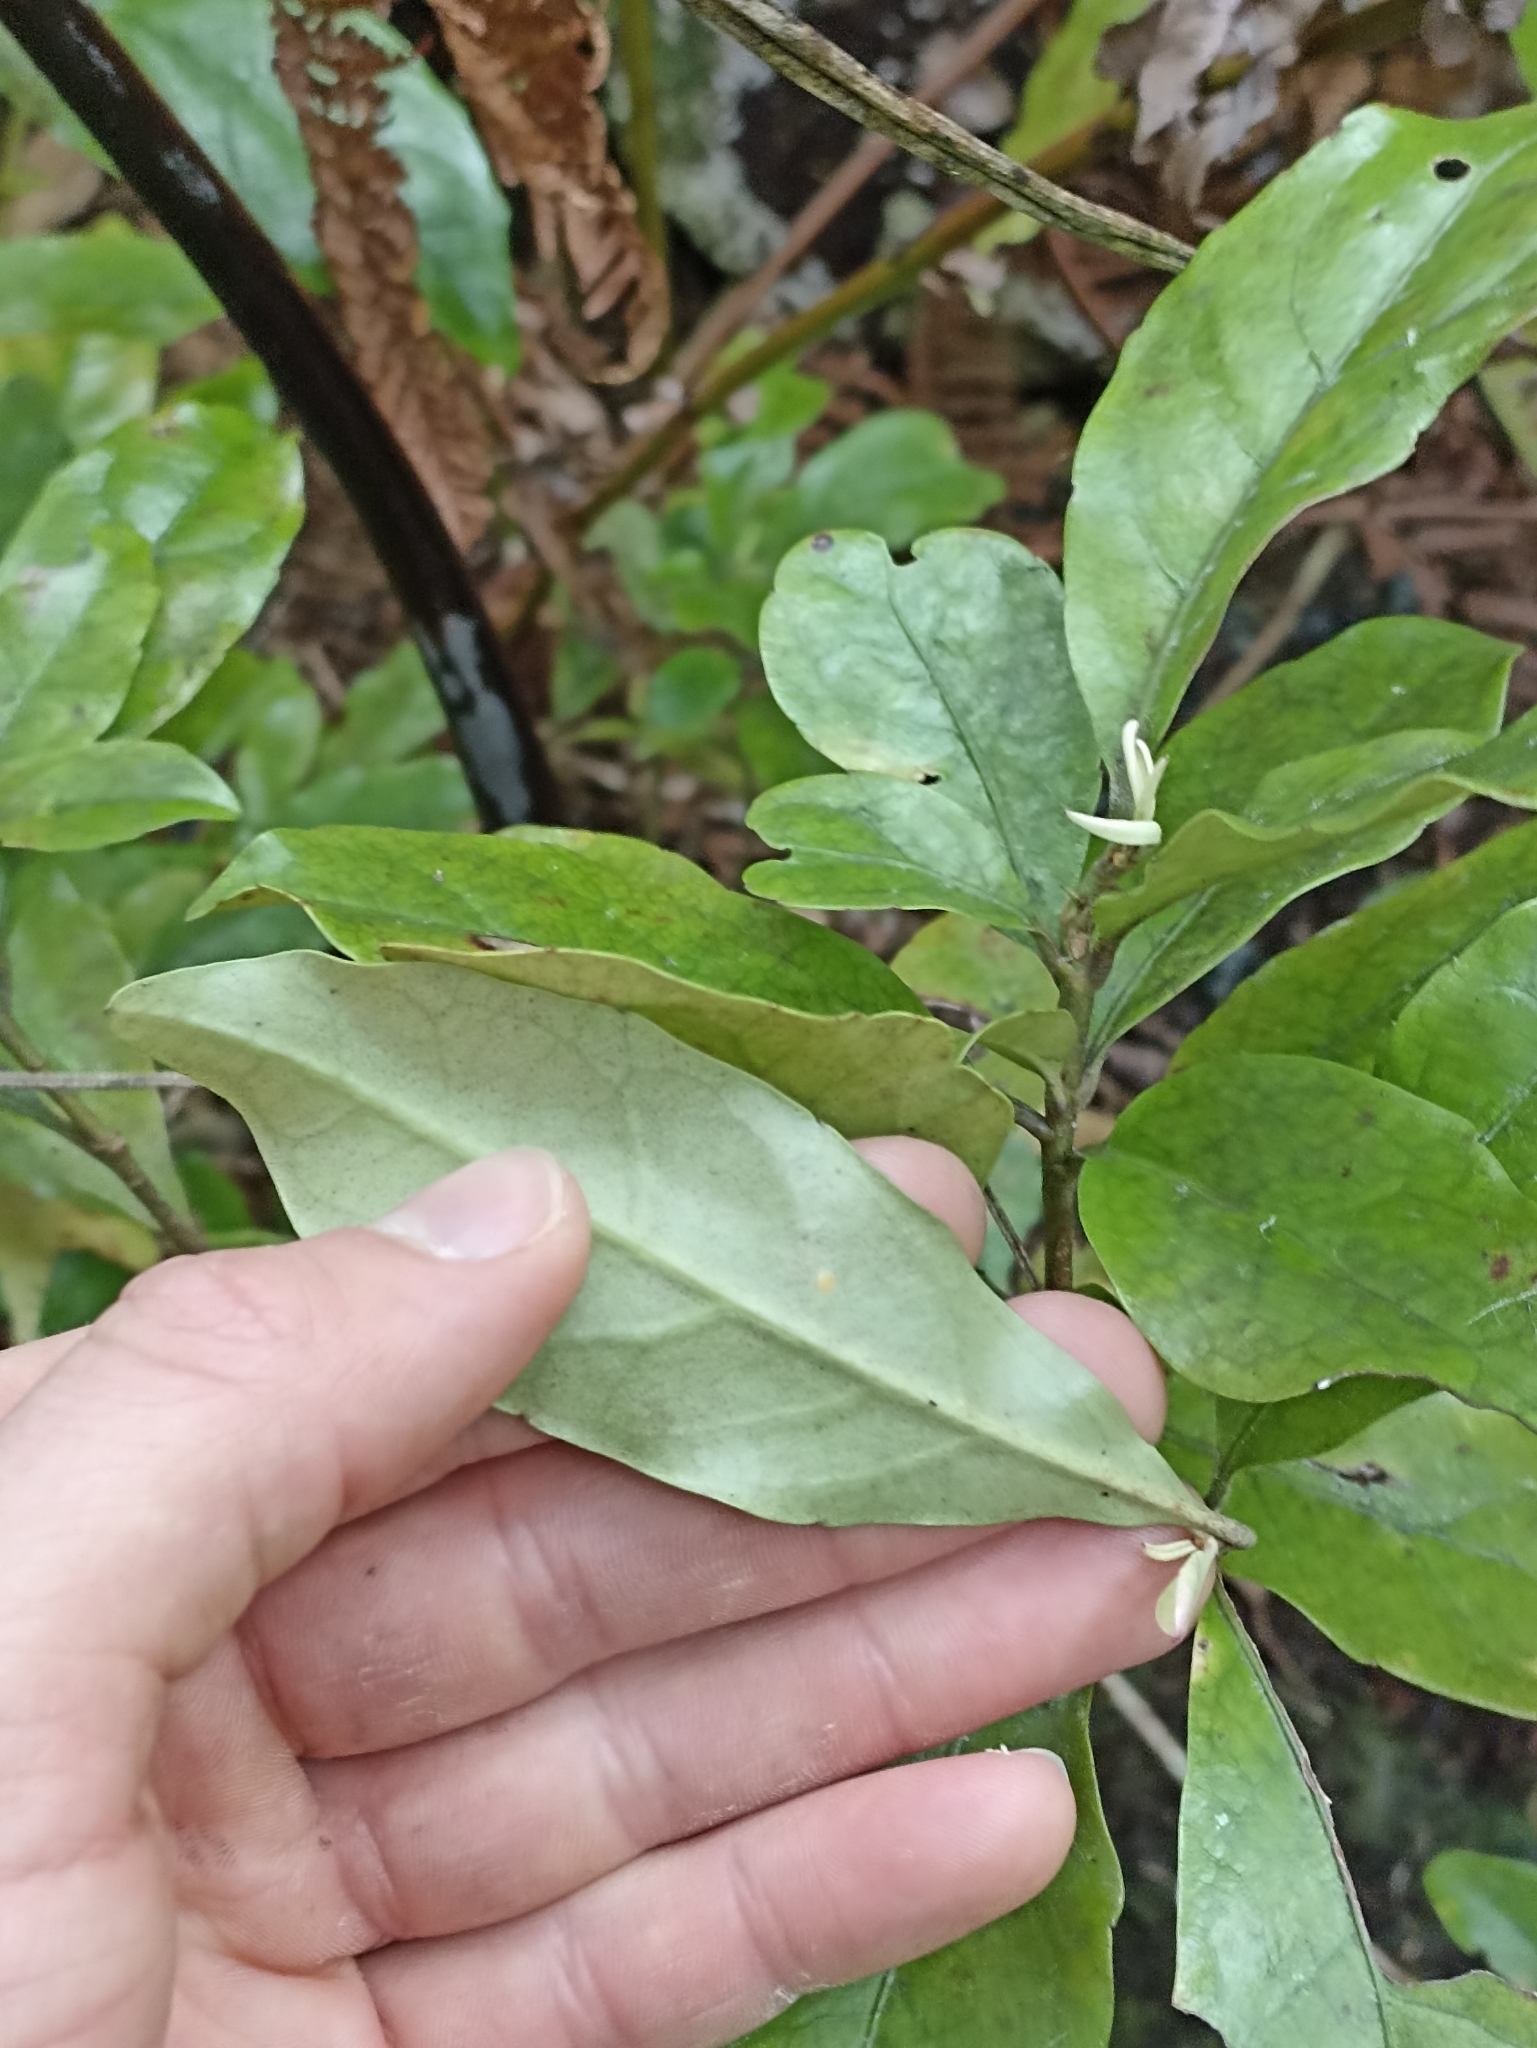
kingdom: Plantae
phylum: Tracheophyta
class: Magnoliopsida
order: Asterales
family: Alseuosmiaceae
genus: Alseuosmia
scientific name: Alseuosmia macrophylla
